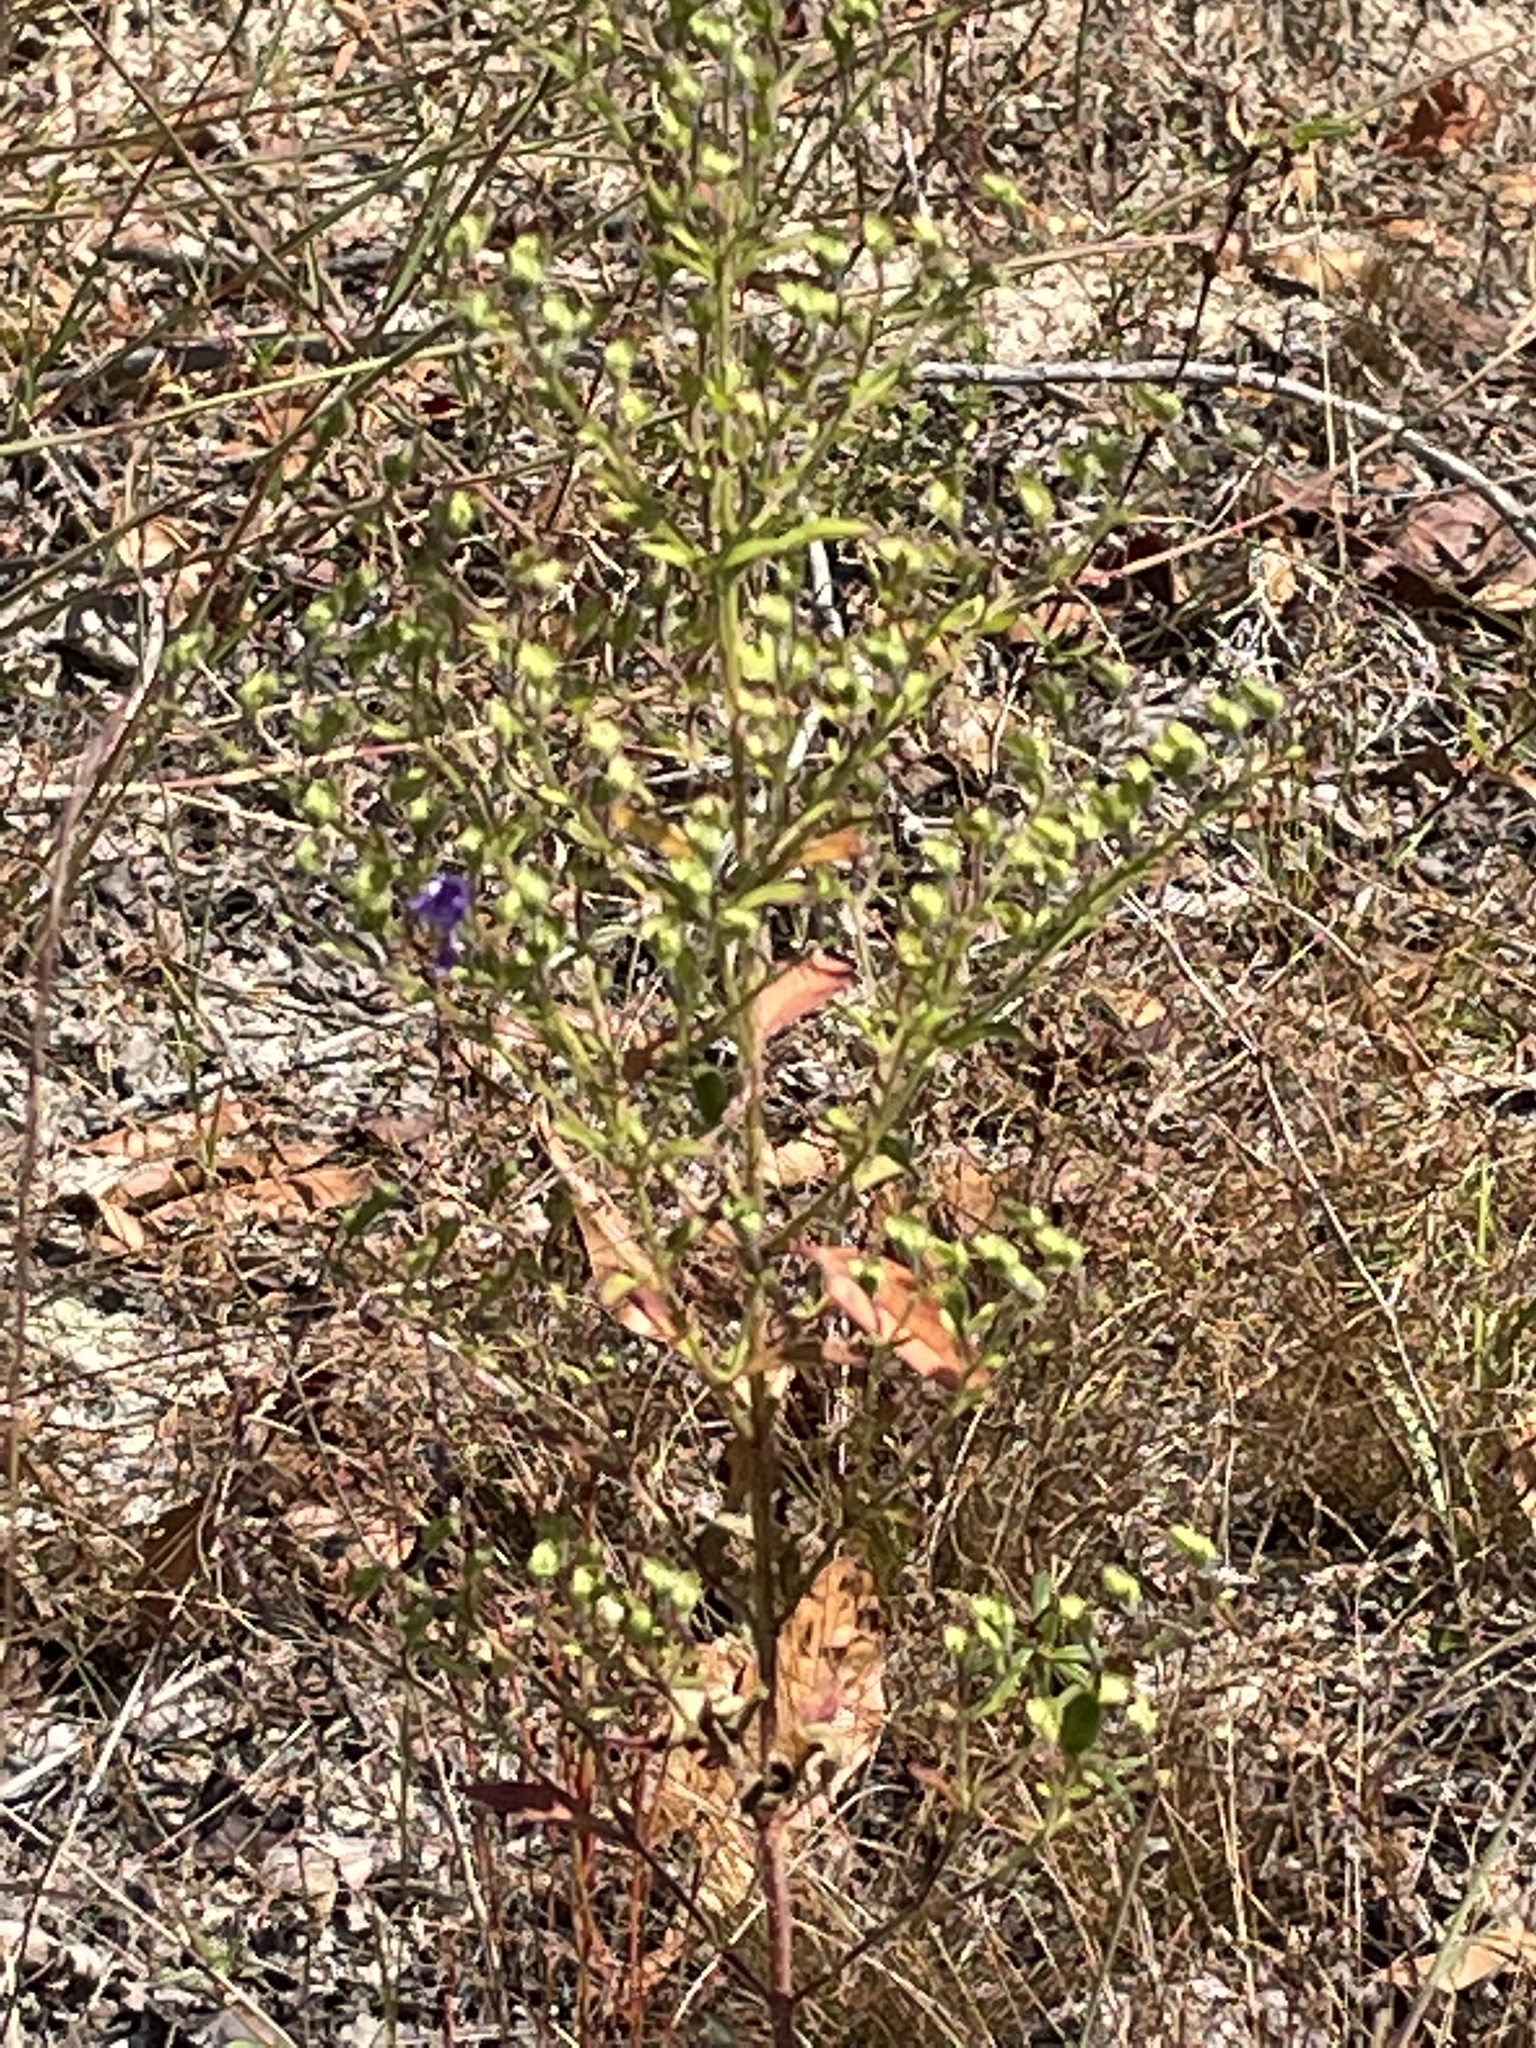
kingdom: Plantae
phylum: Tracheophyta
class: Magnoliopsida
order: Lamiales
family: Lamiaceae
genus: Trichostema
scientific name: Trichostema dichotomum
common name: Bastard pennyroyal
